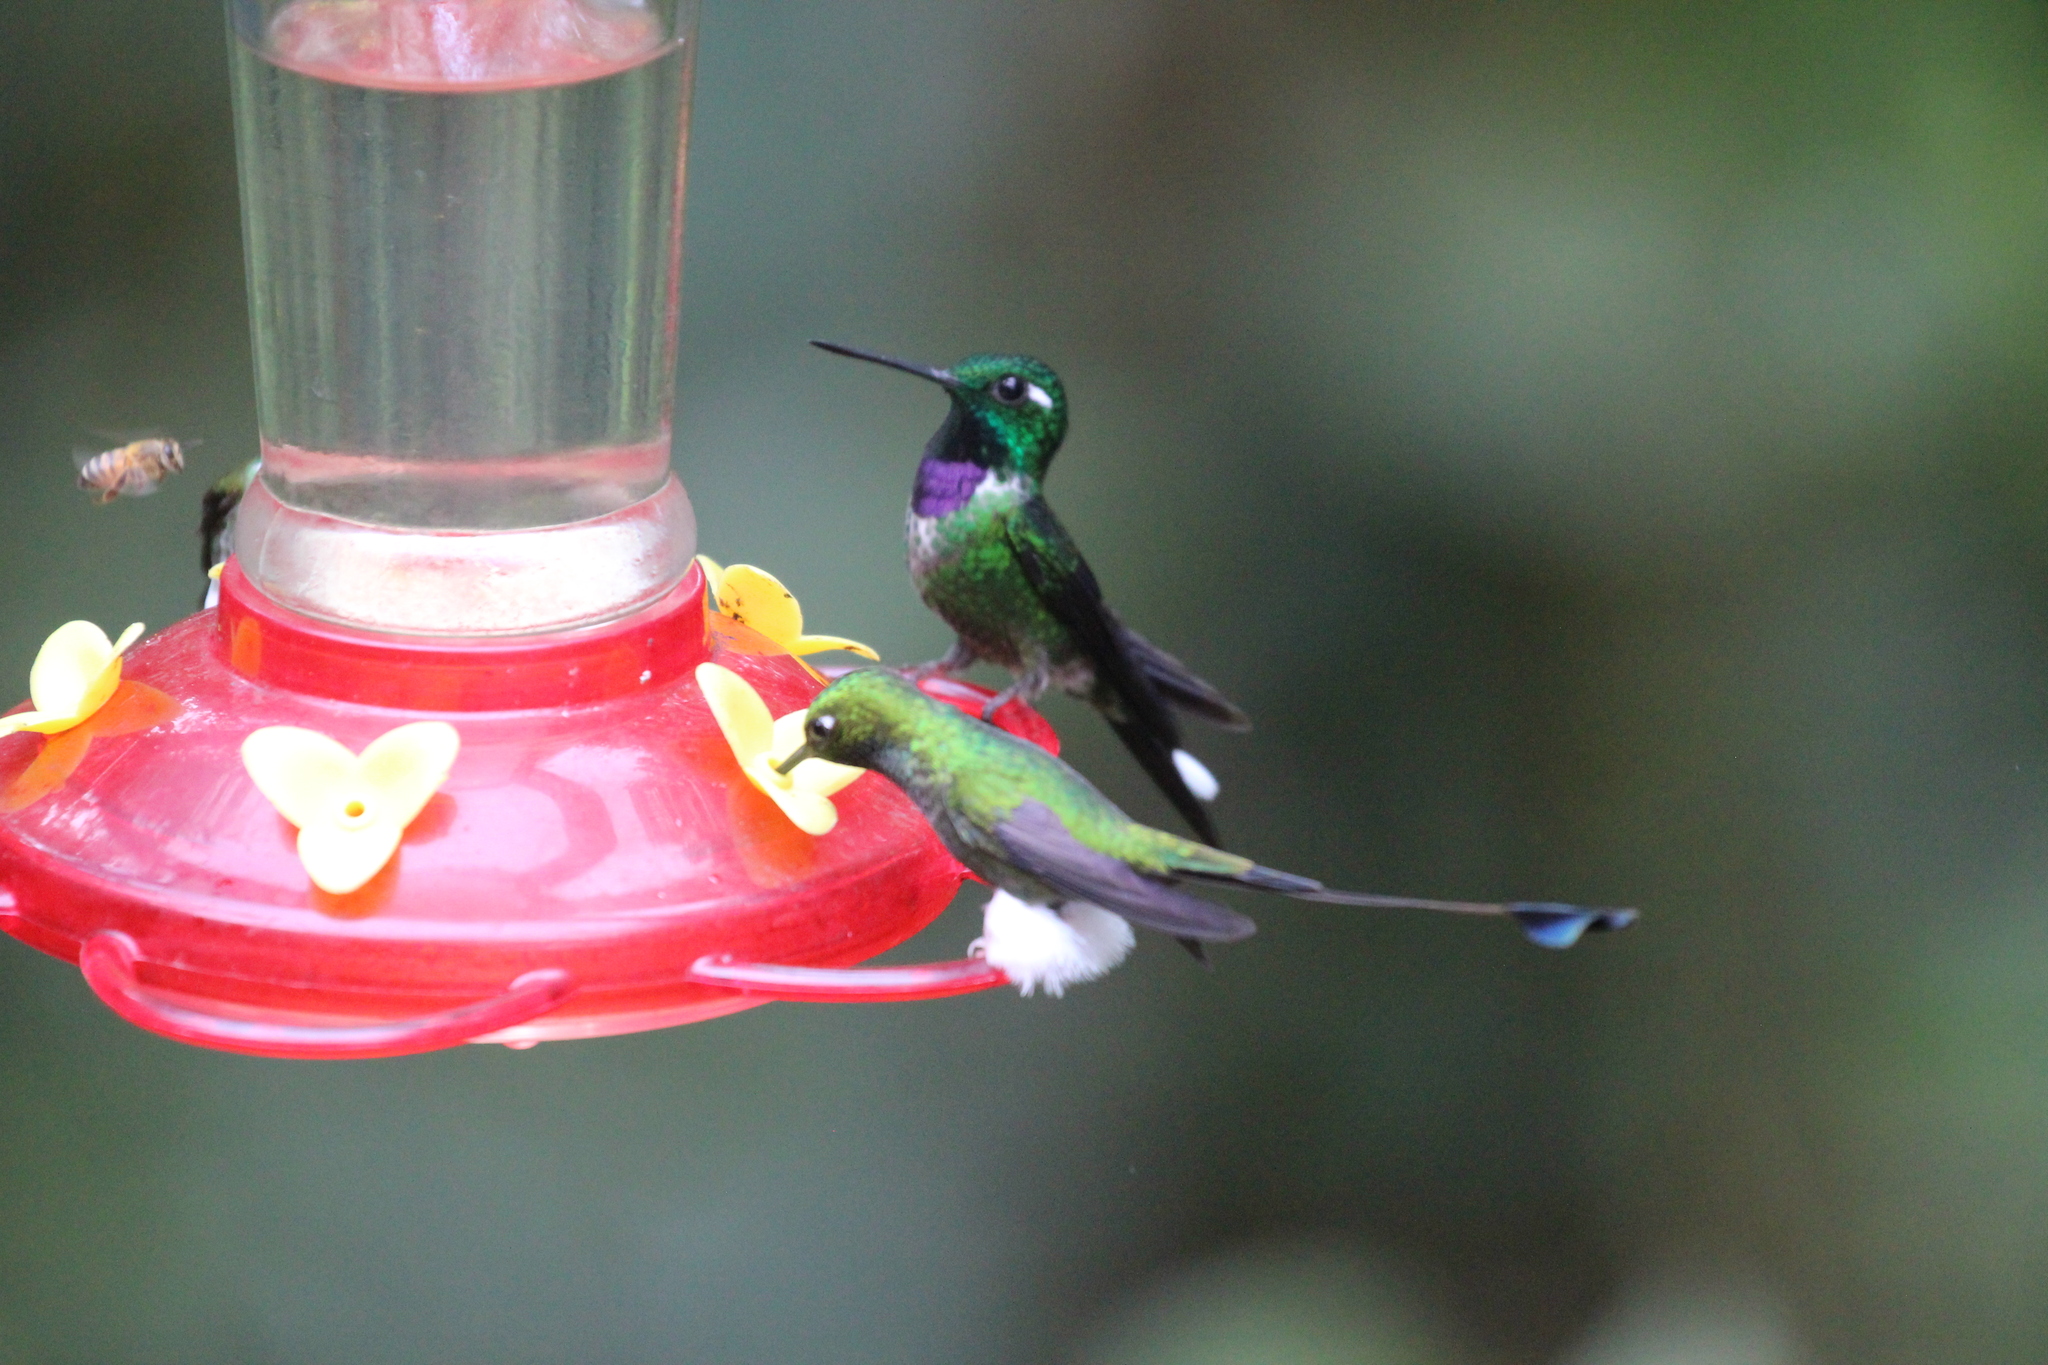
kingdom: Animalia
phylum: Chordata
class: Aves
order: Apodiformes
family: Trochilidae
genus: Urosticte
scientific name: Urosticte benjamini
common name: Purple-bibbed whitetip
